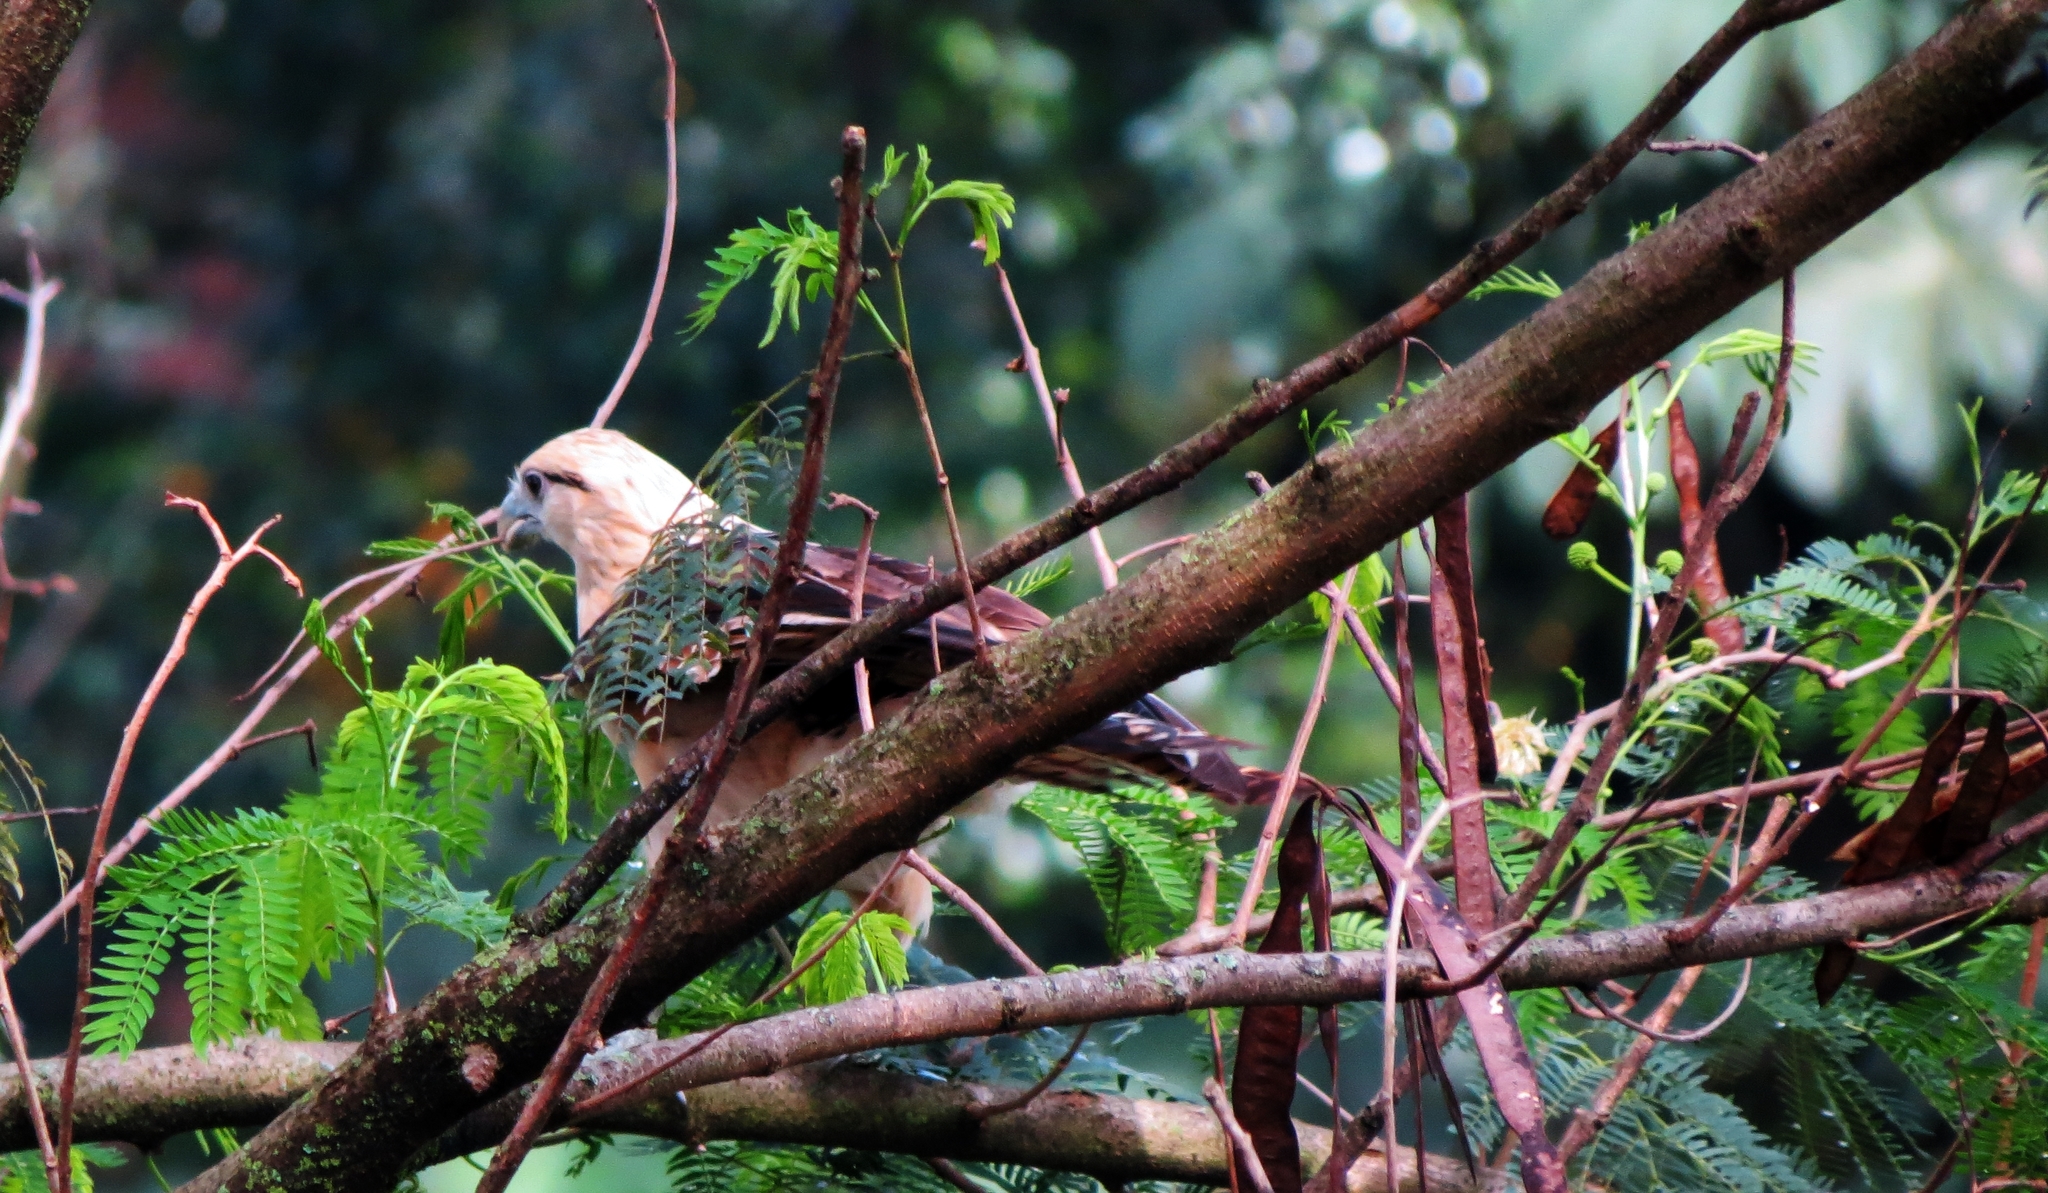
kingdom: Animalia
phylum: Chordata
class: Aves
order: Falconiformes
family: Falconidae
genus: Daptrius
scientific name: Daptrius
